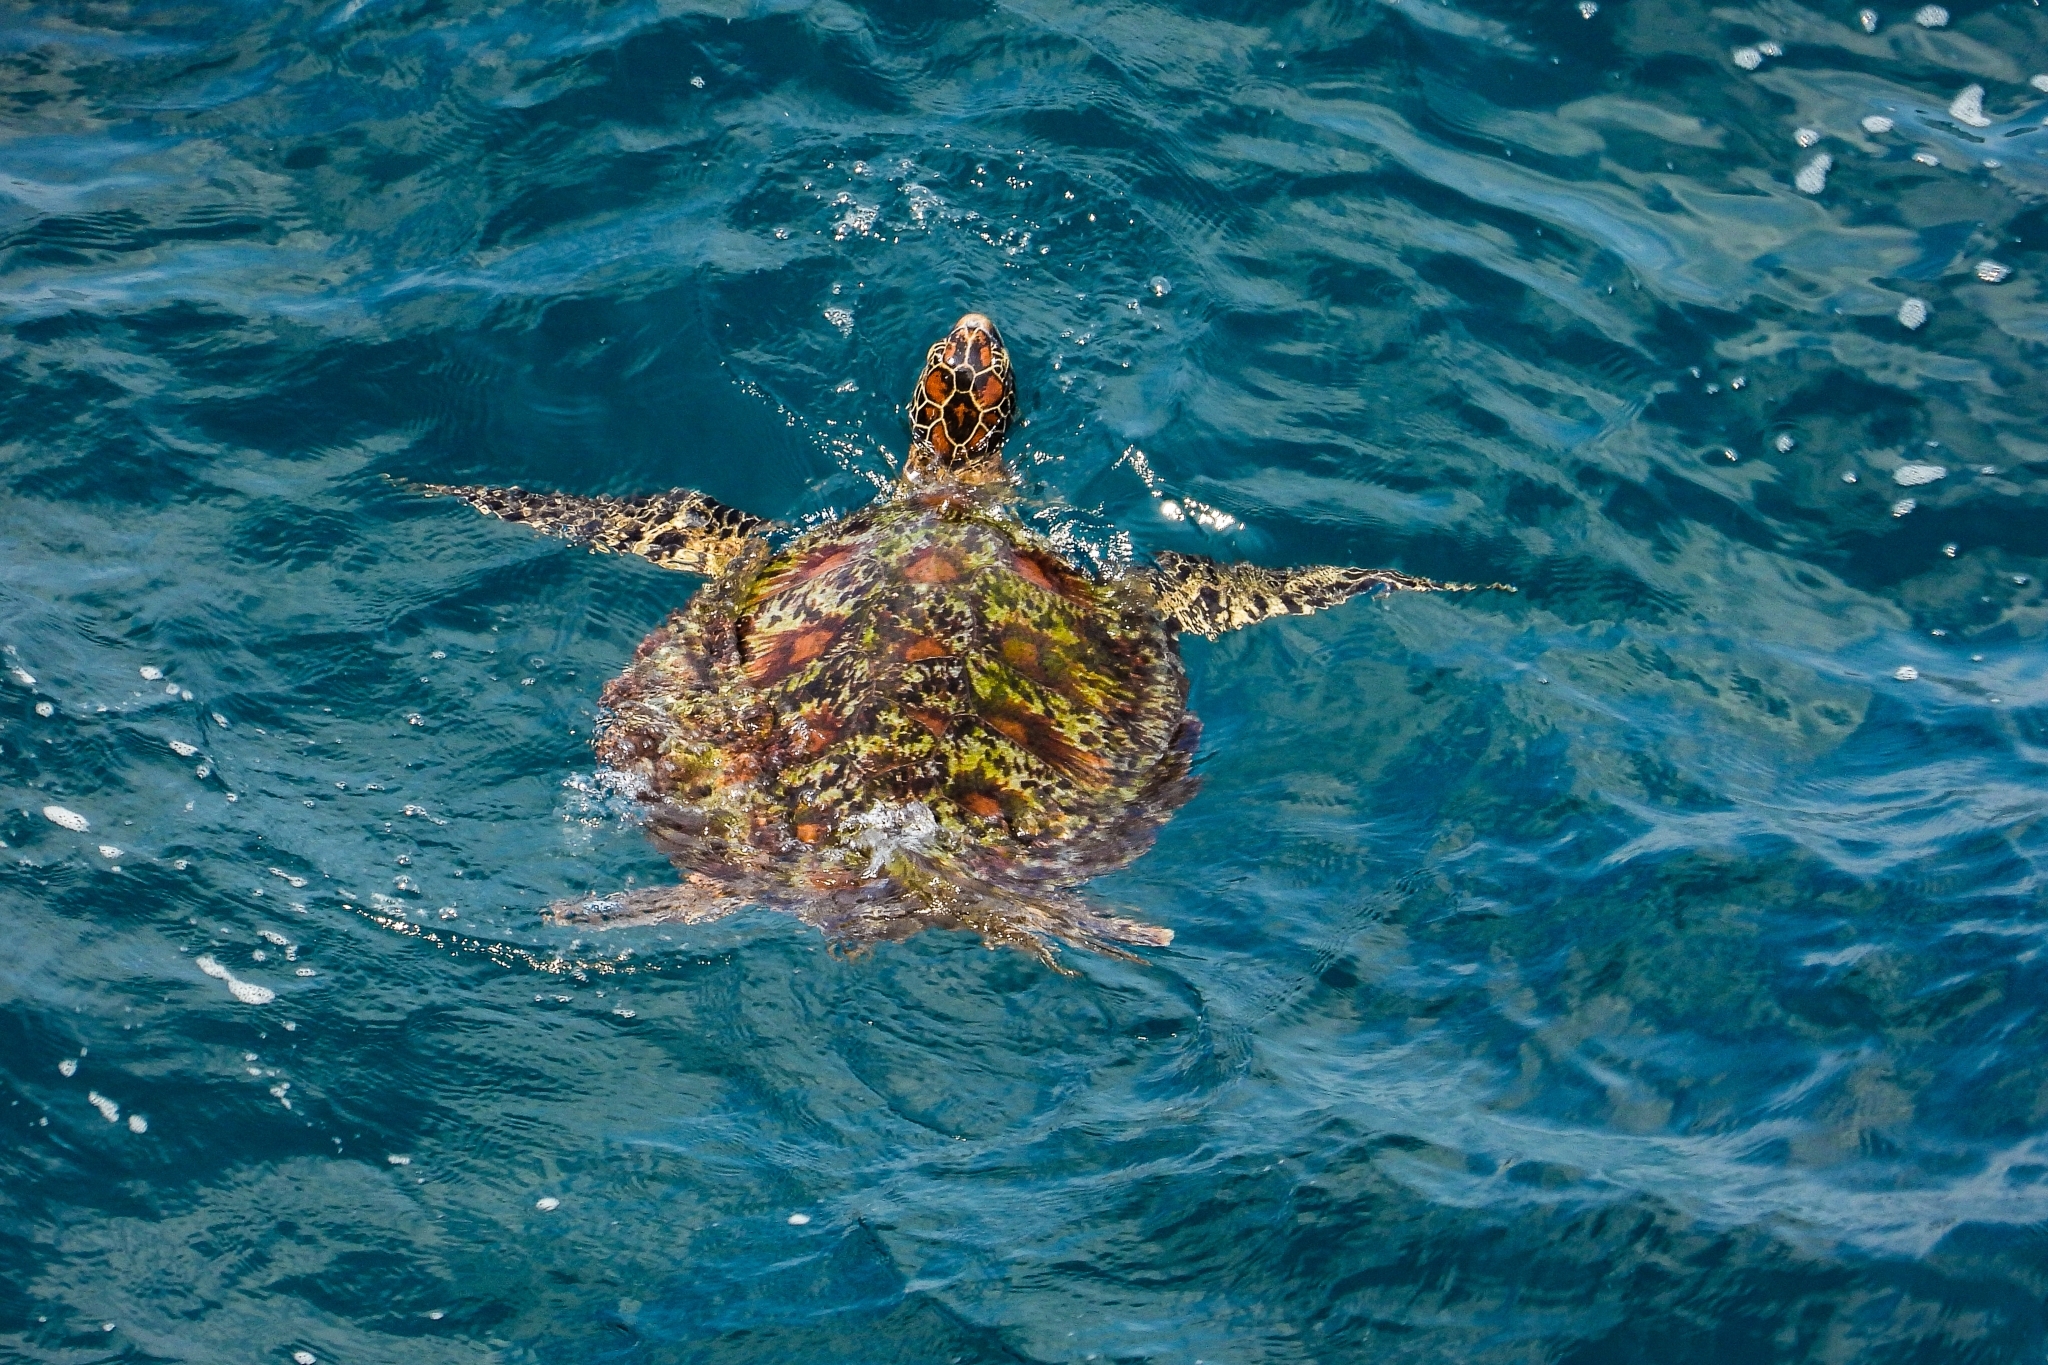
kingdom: Animalia
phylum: Chordata
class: Testudines
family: Cheloniidae
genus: Chelonia
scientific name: Chelonia mydas
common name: Green turtle
